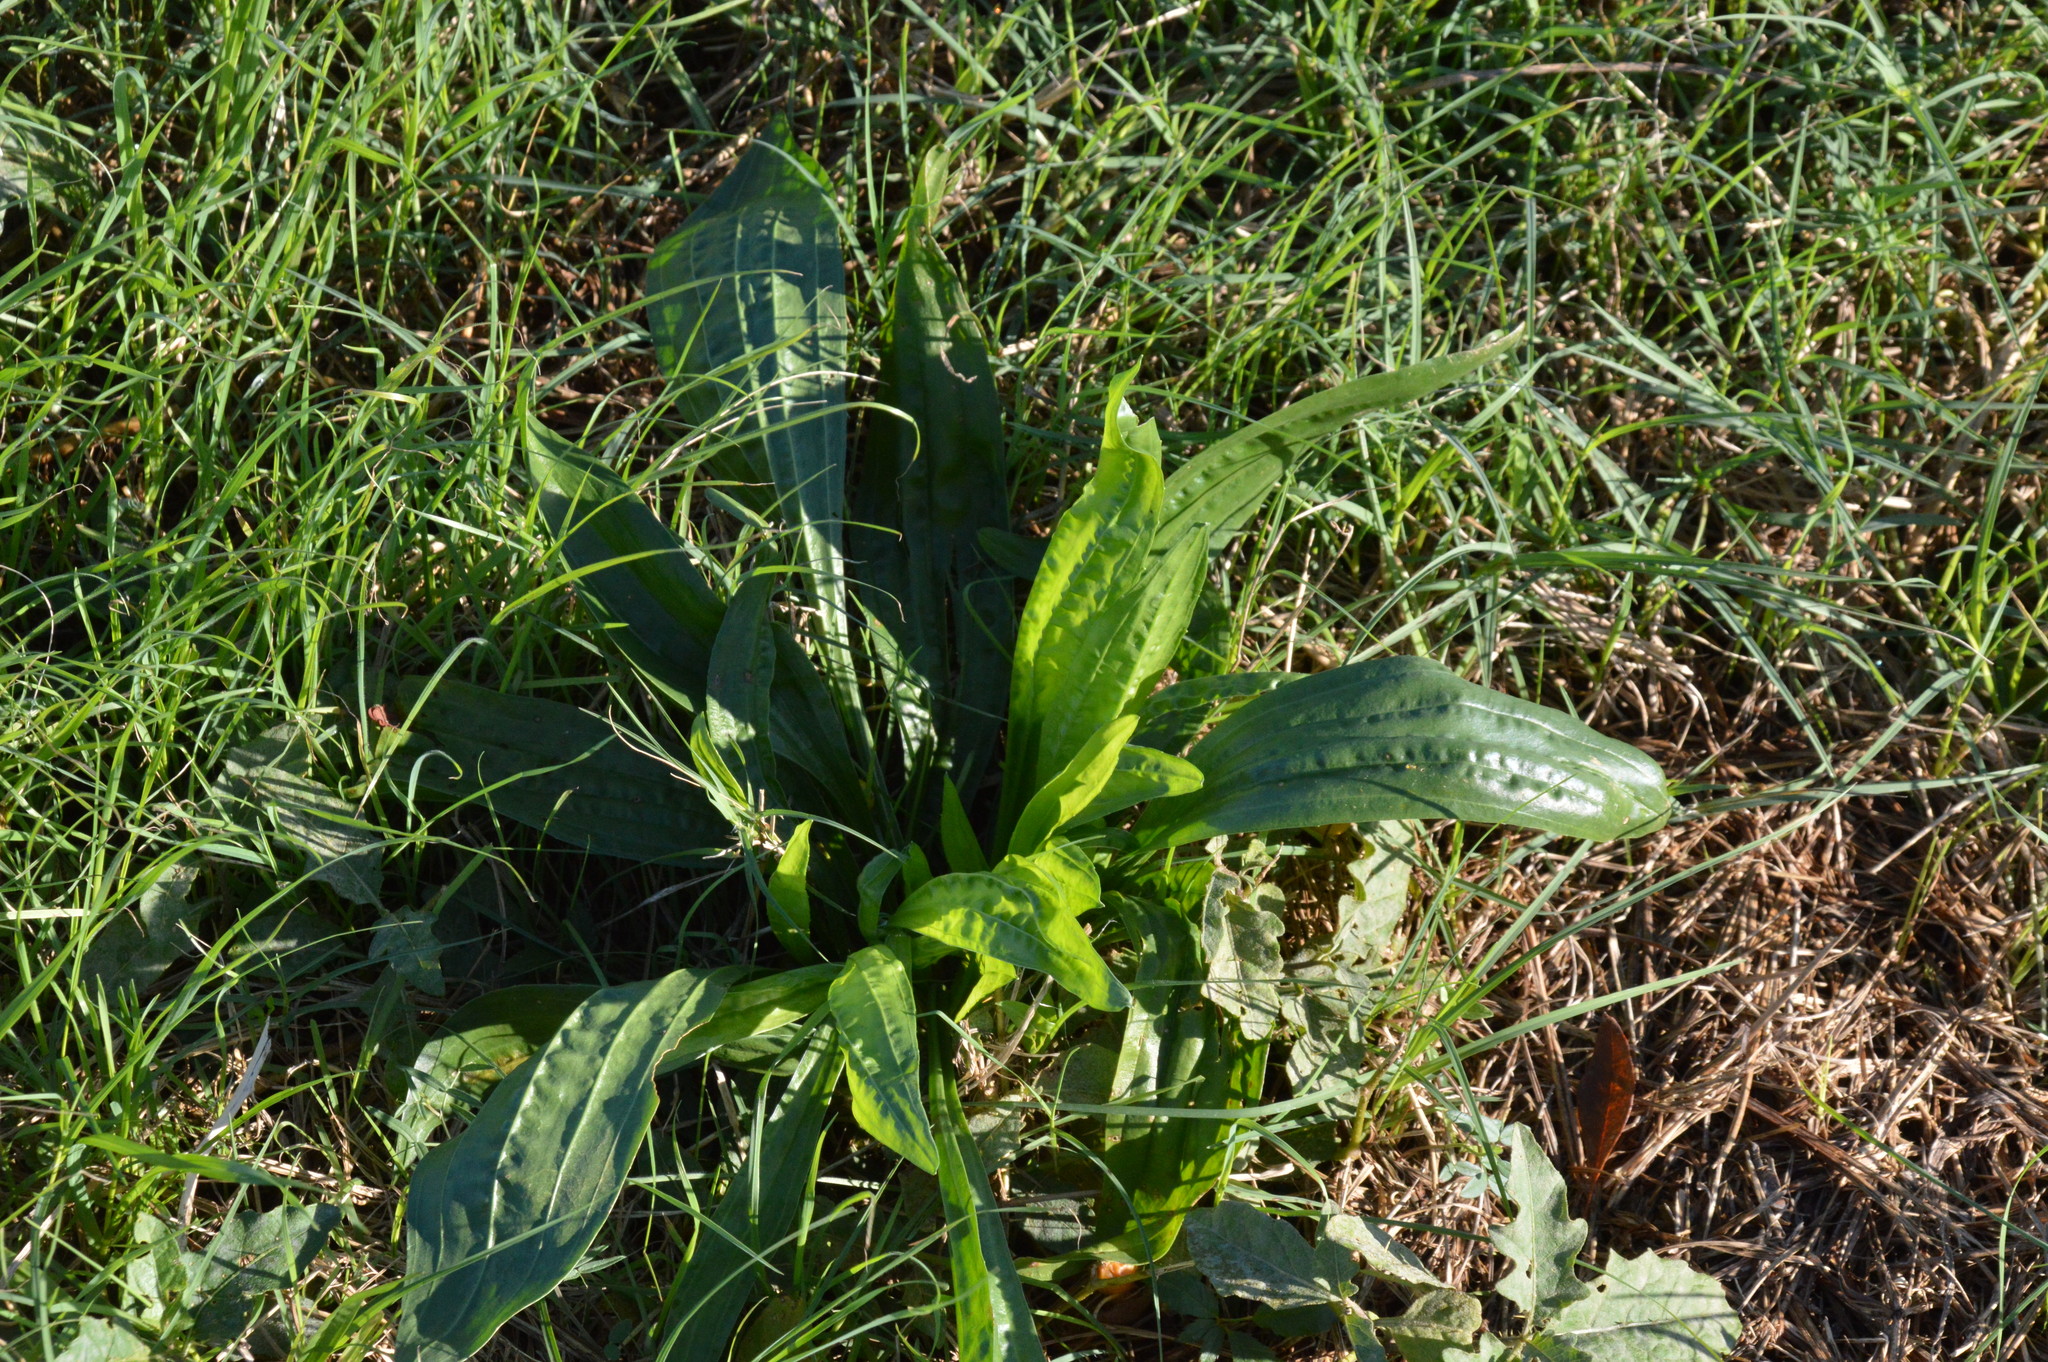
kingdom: Plantae
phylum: Tracheophyta
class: Magnoliopsida
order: Lamiales
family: Plantaginaceae
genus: Plantago
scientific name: Plantago lanceolata
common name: Ribwort plantain
